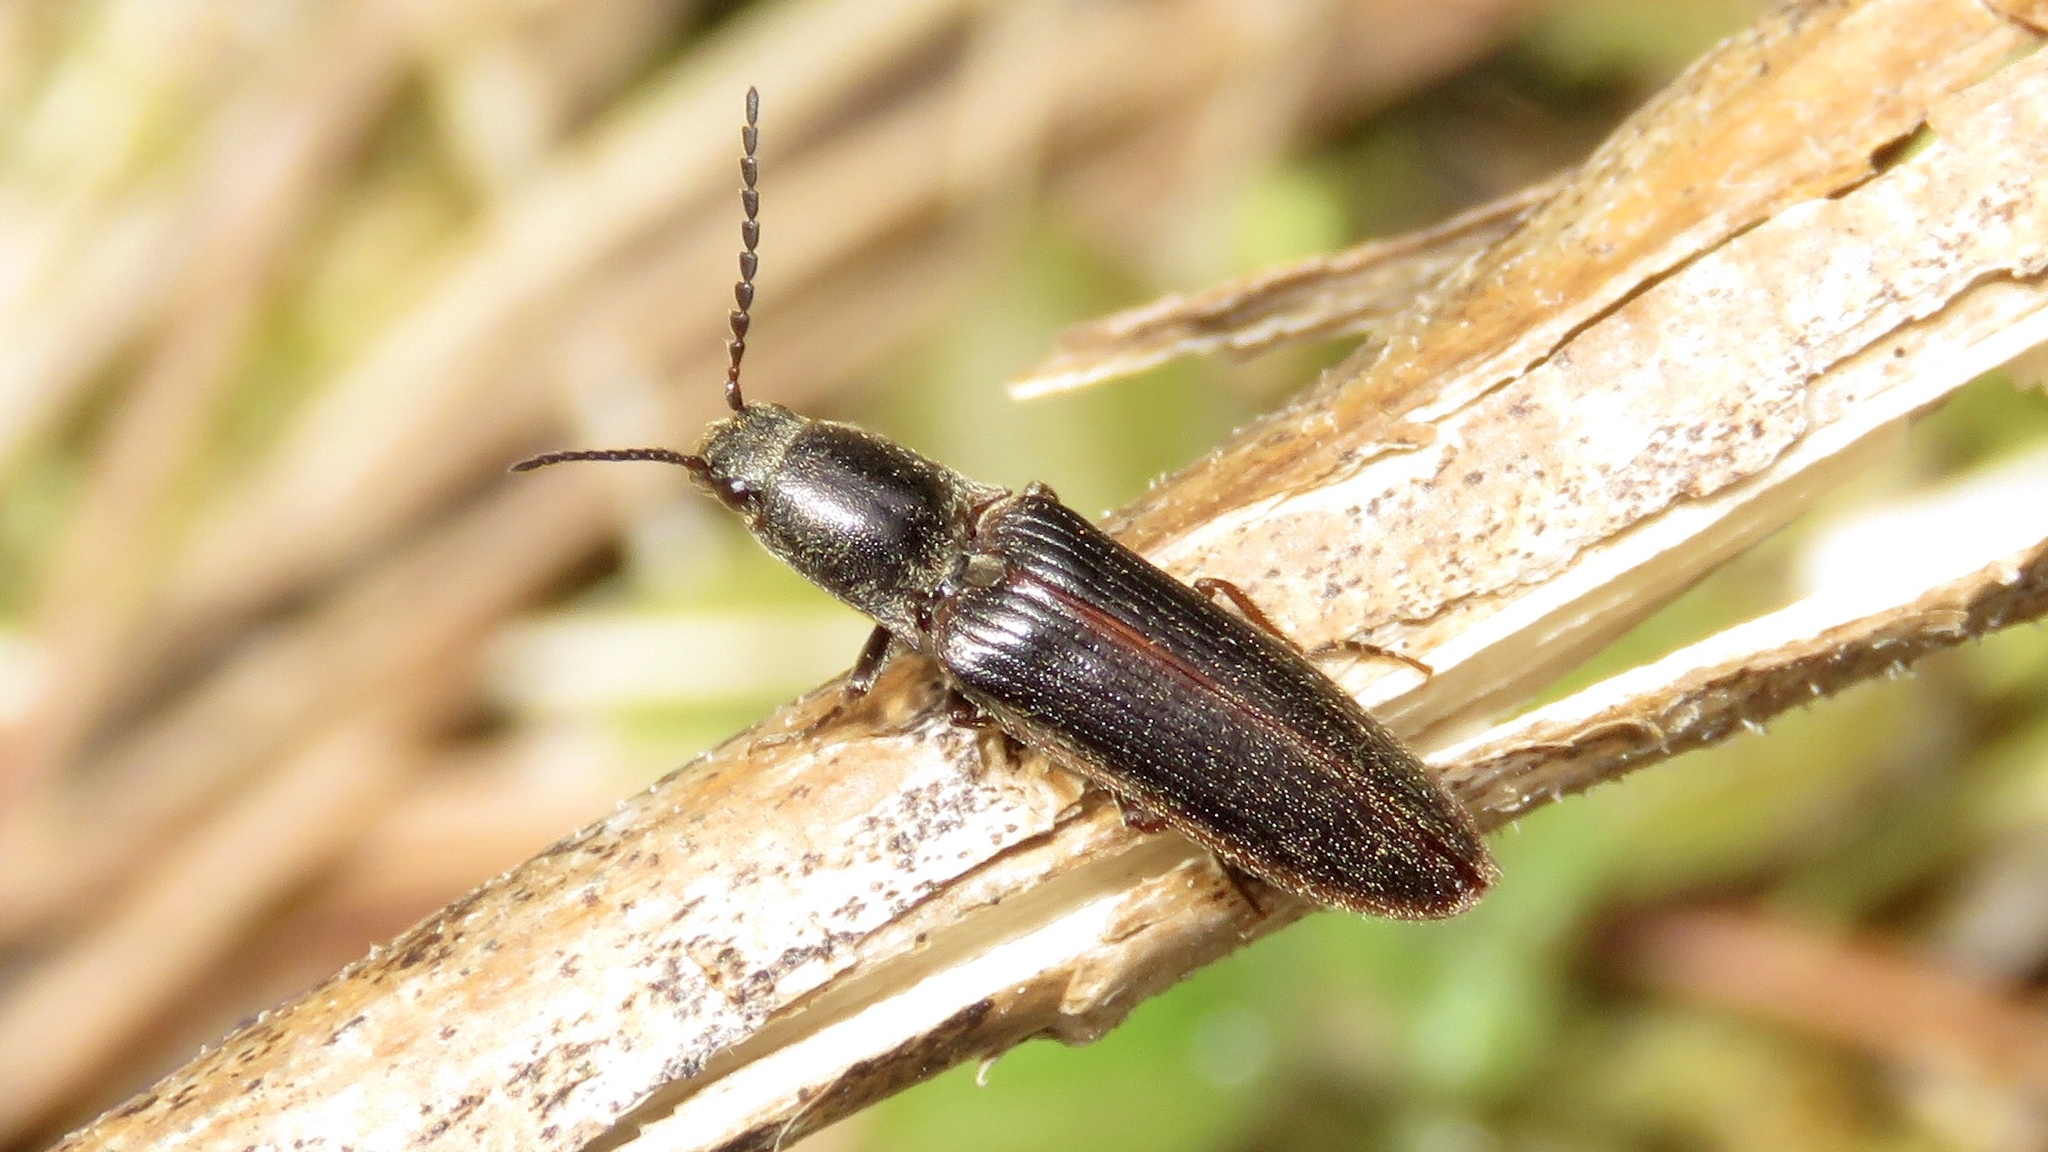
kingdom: Animalia
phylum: Arthropoda
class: Insecta
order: Coleoptera
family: Elateridae
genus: Sylvanelater
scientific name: Sylvanelater cylindriformis
